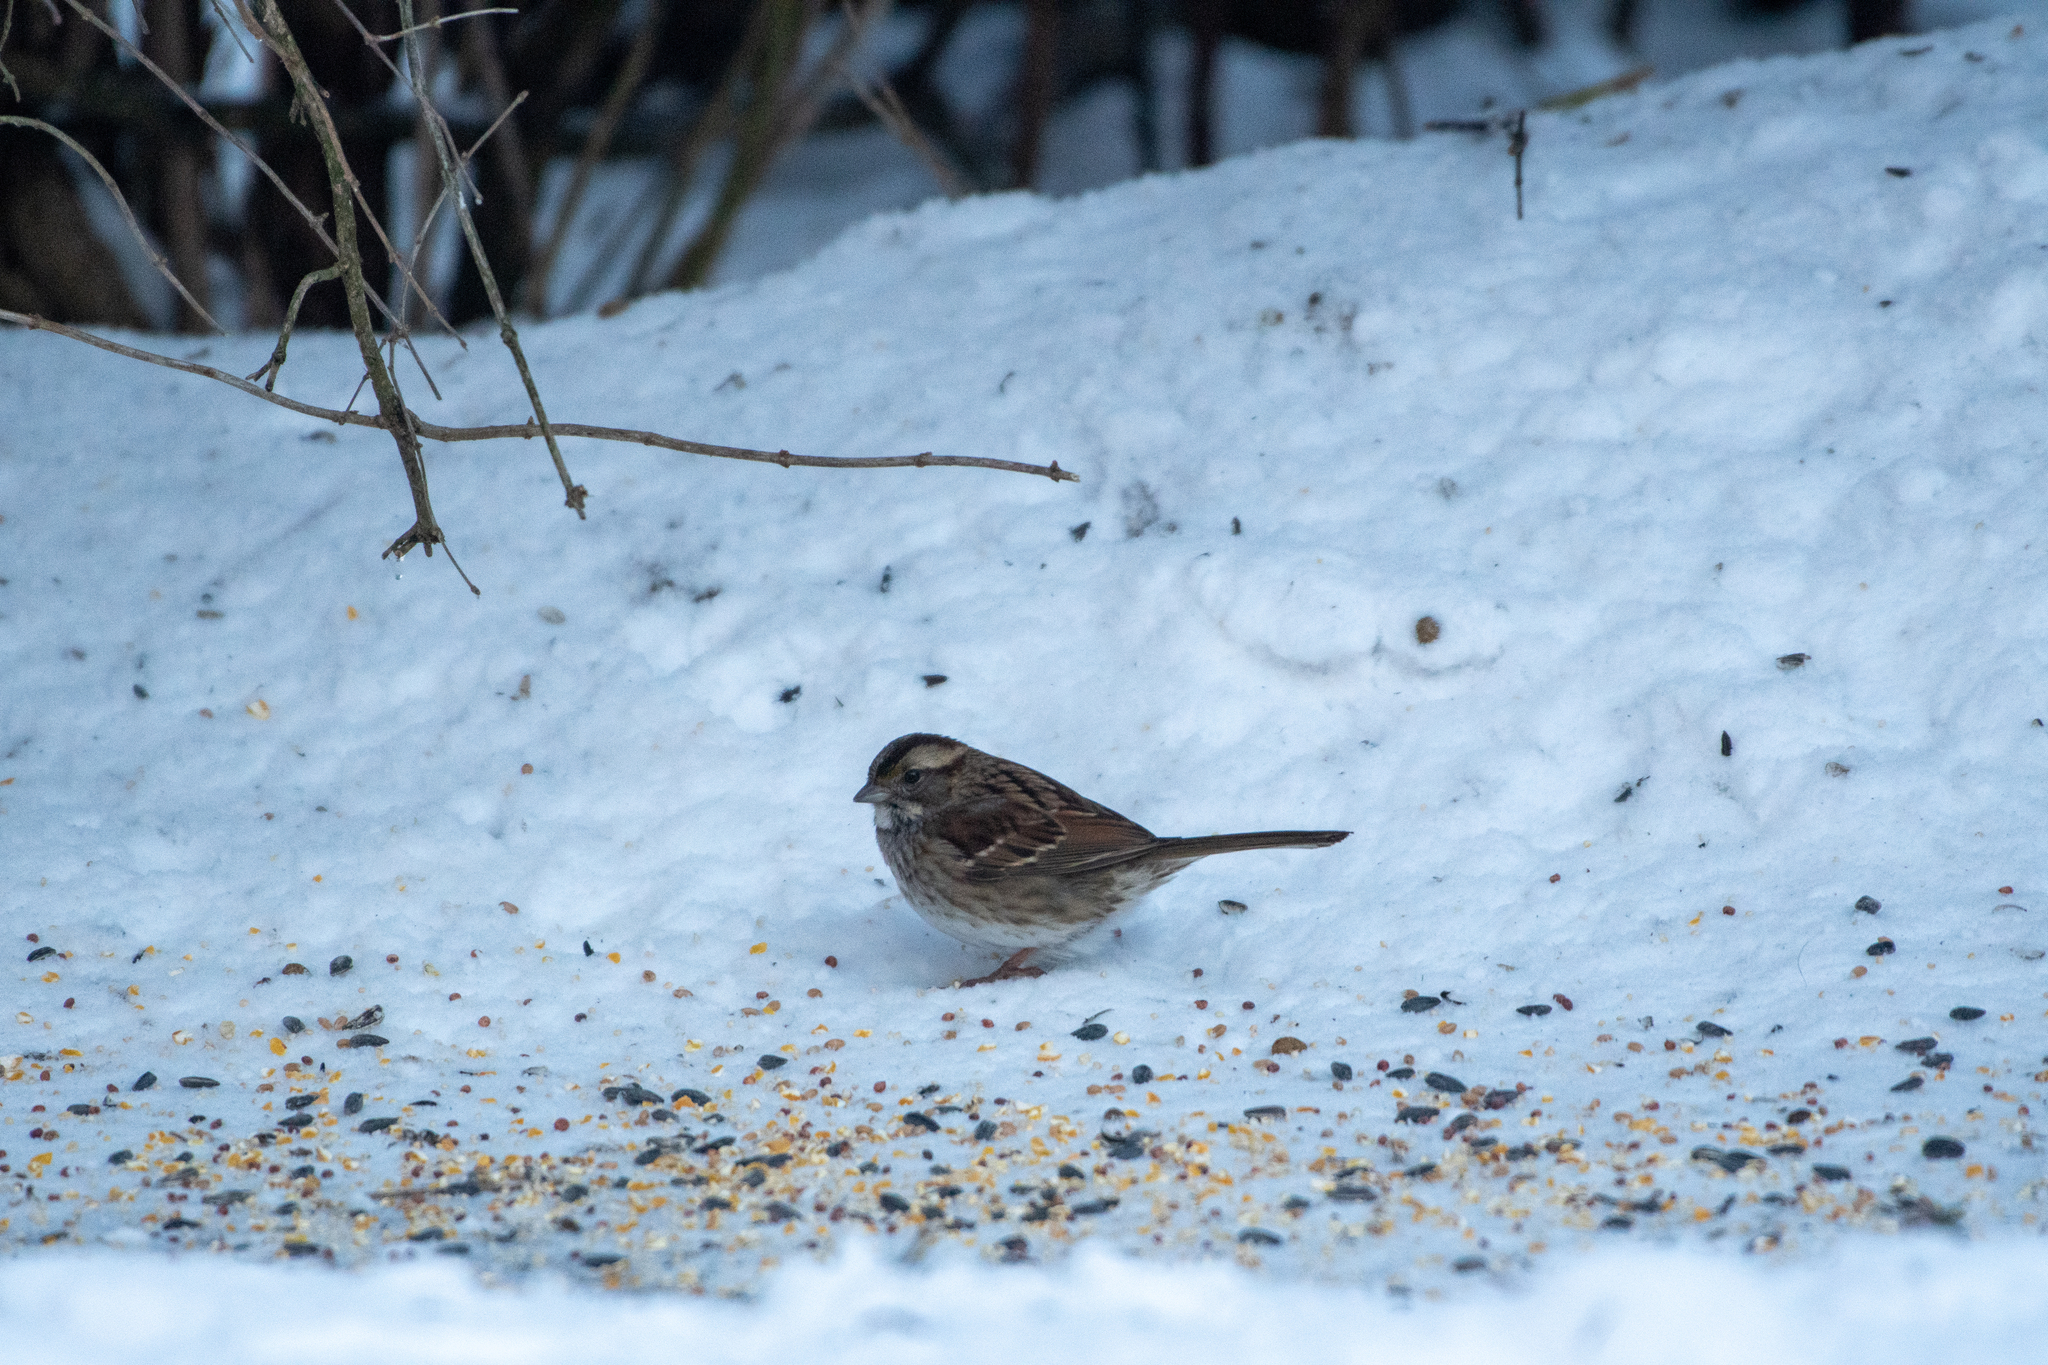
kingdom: Animalia
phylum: Chordata
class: Aves
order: Passeriformes
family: Passerellidae
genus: Zonotrichia
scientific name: Zonotrichia albicollis
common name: White-throated sparrow
